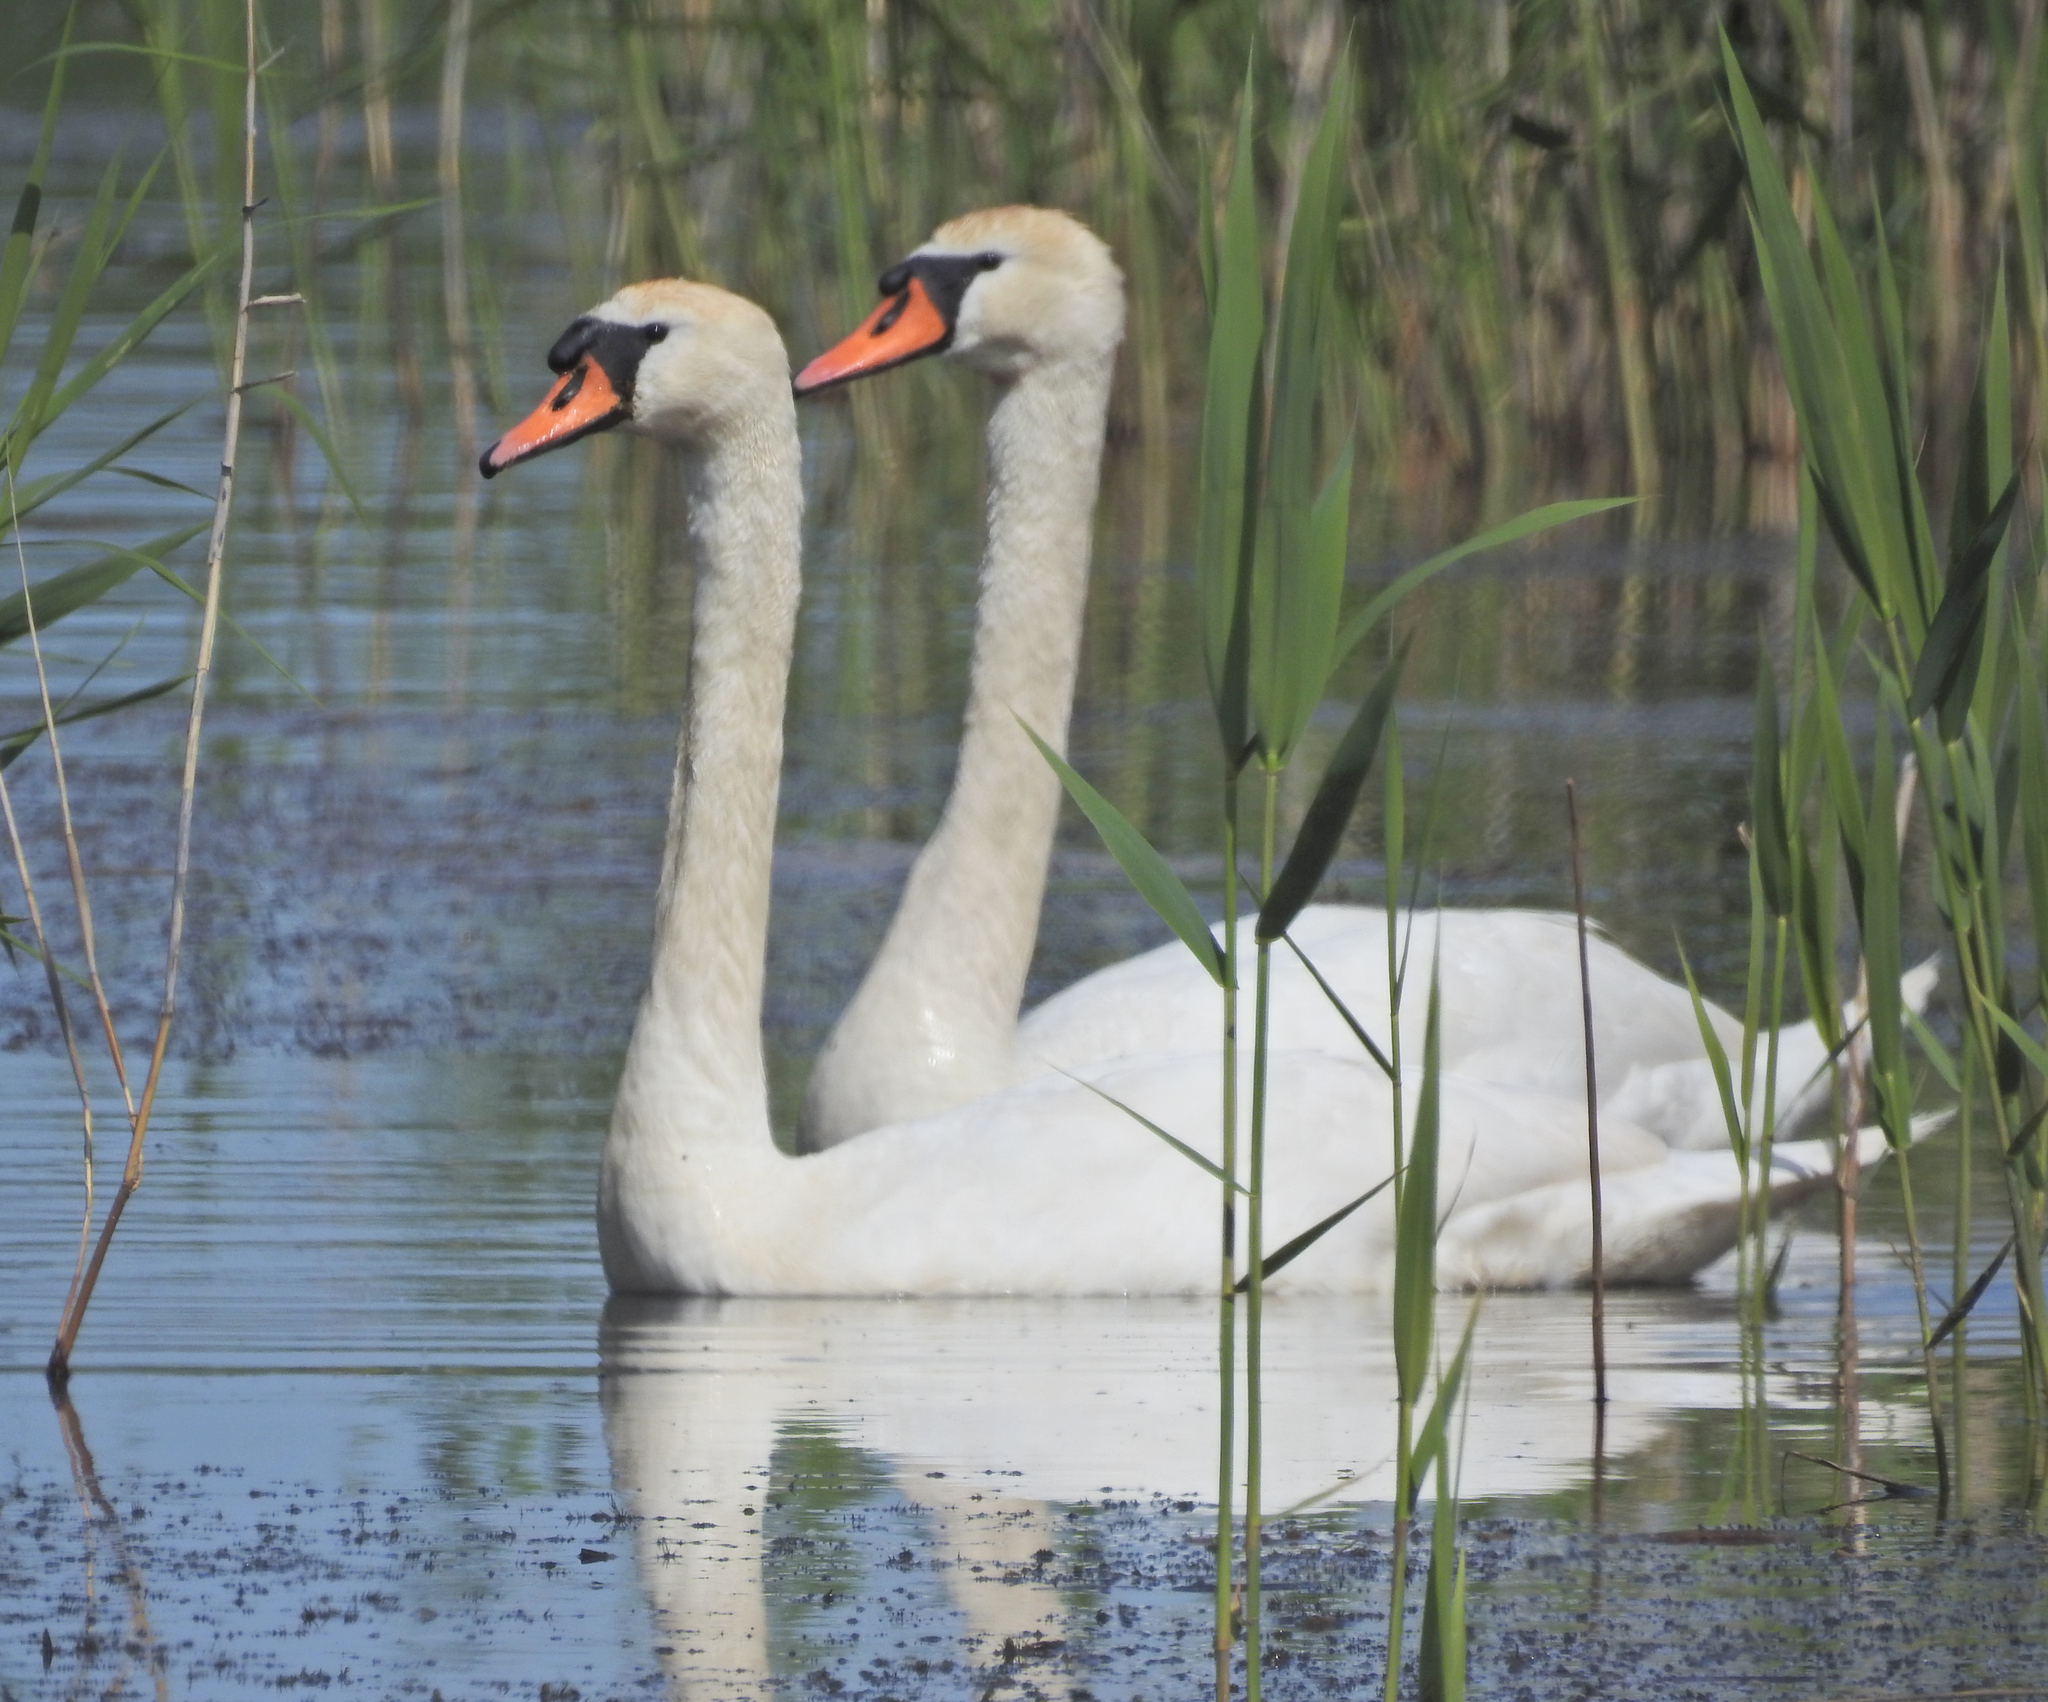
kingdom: Animalia
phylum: Chordata
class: Aves
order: Anseriformes
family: Anatidae
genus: Cygnus
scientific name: Cygnus olor
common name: Mute swan
